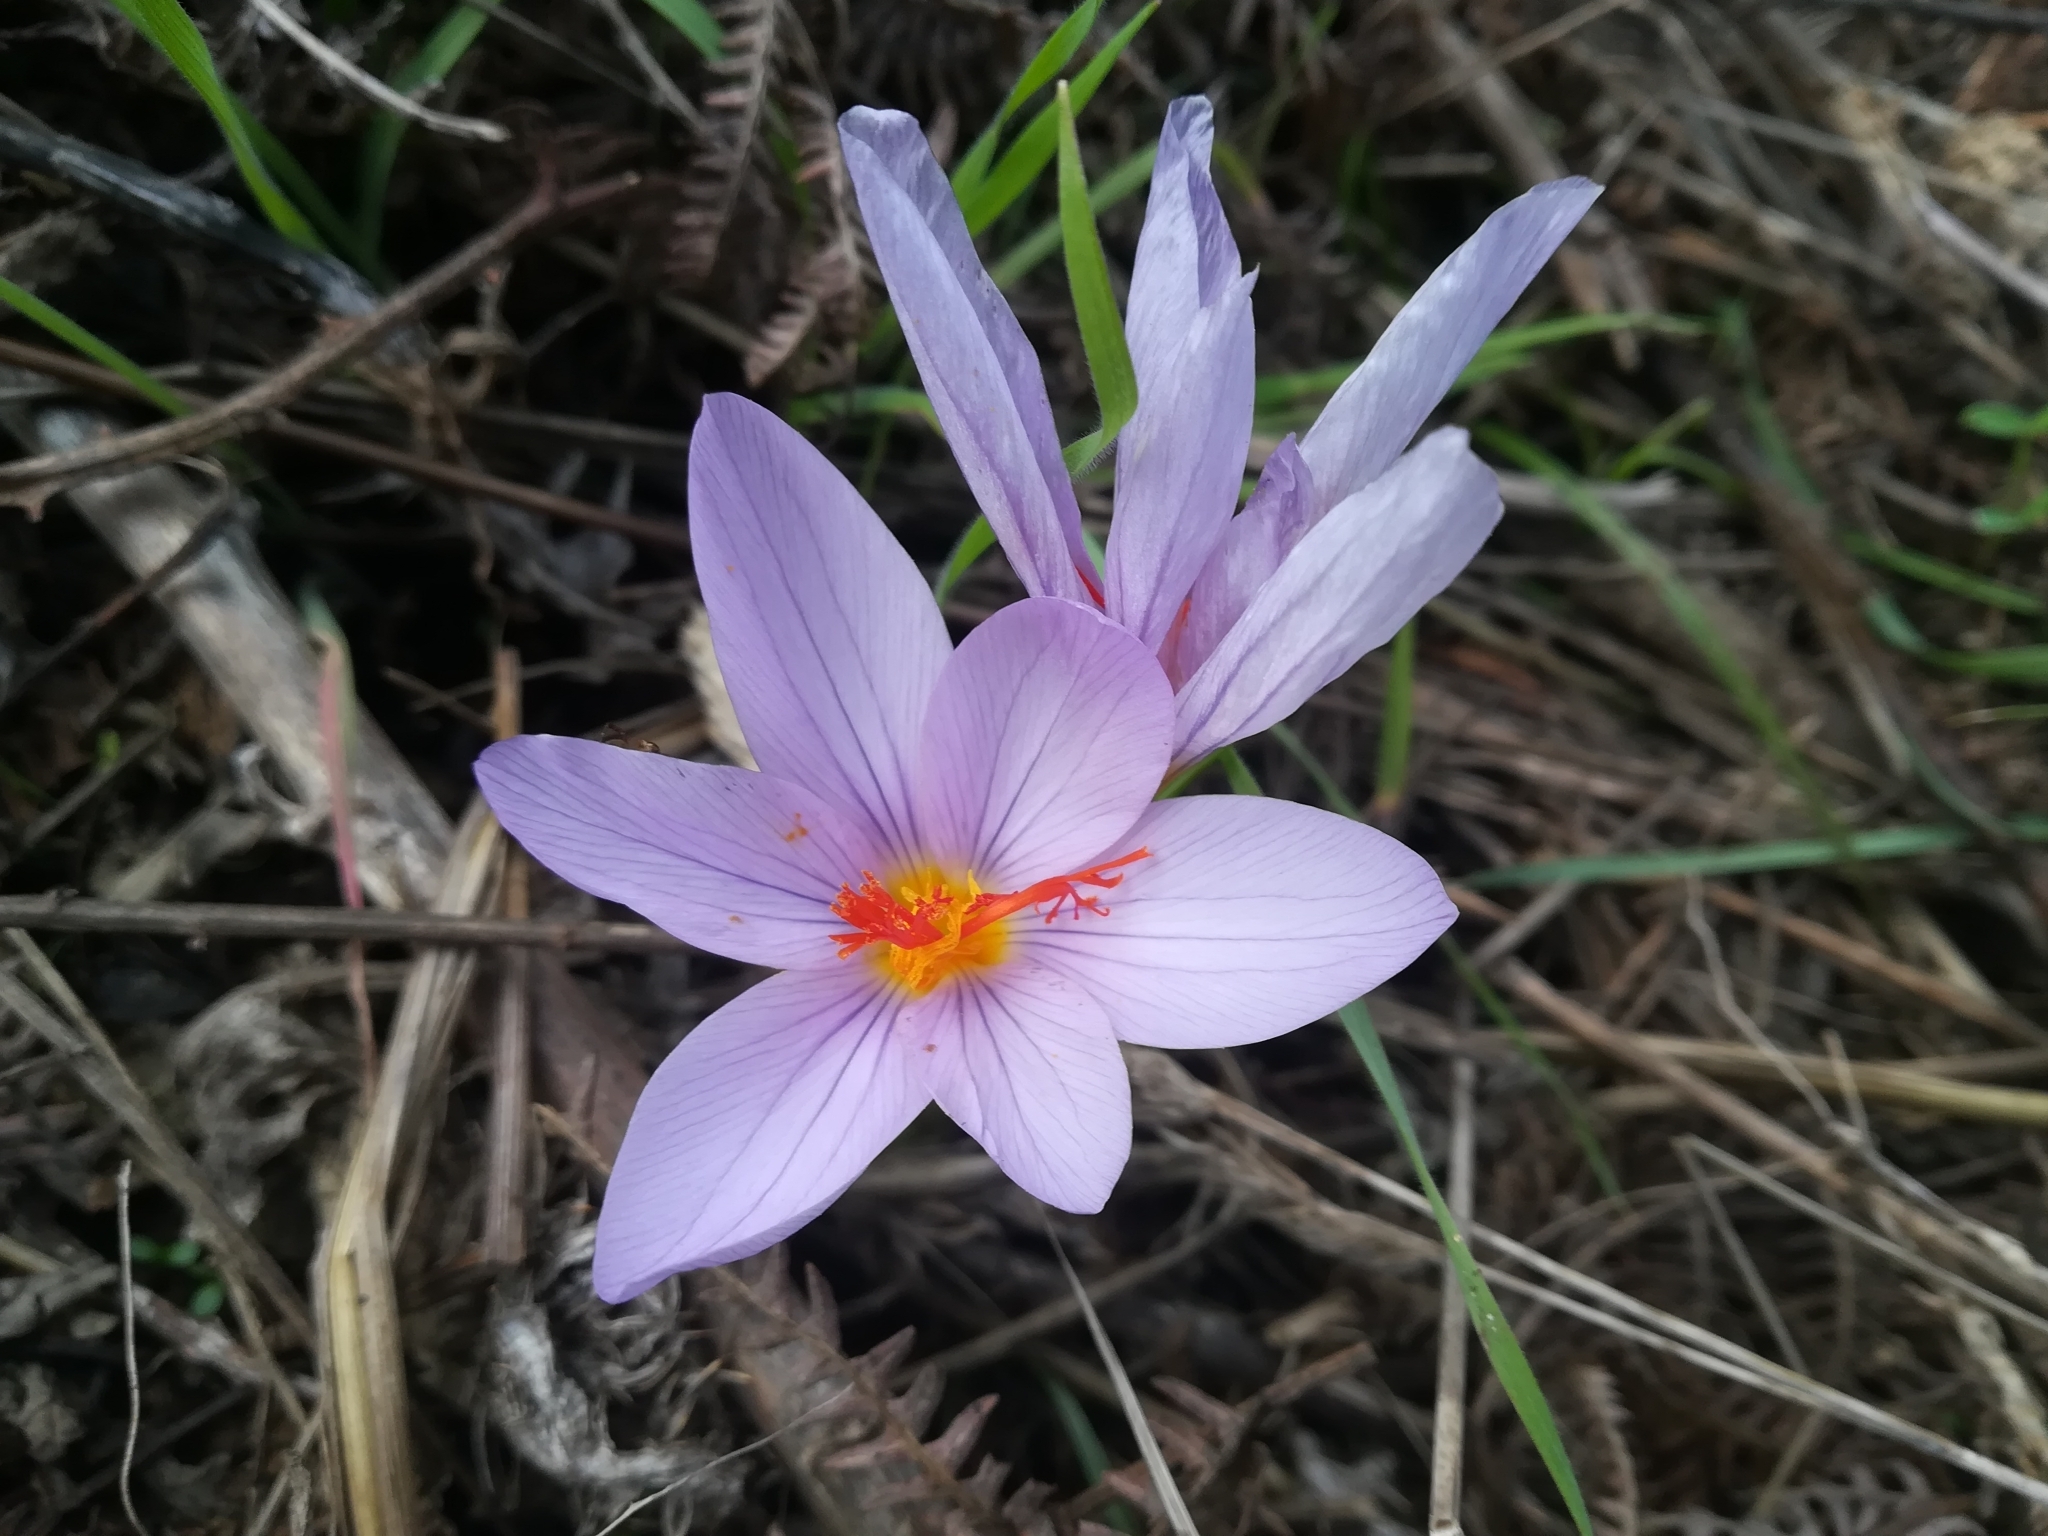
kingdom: Plantae
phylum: Tracheophyta
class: Liliopsida
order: Asparagales
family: Iridaceae
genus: Crocus
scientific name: Crocus longiflorus
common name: Italian crocus
